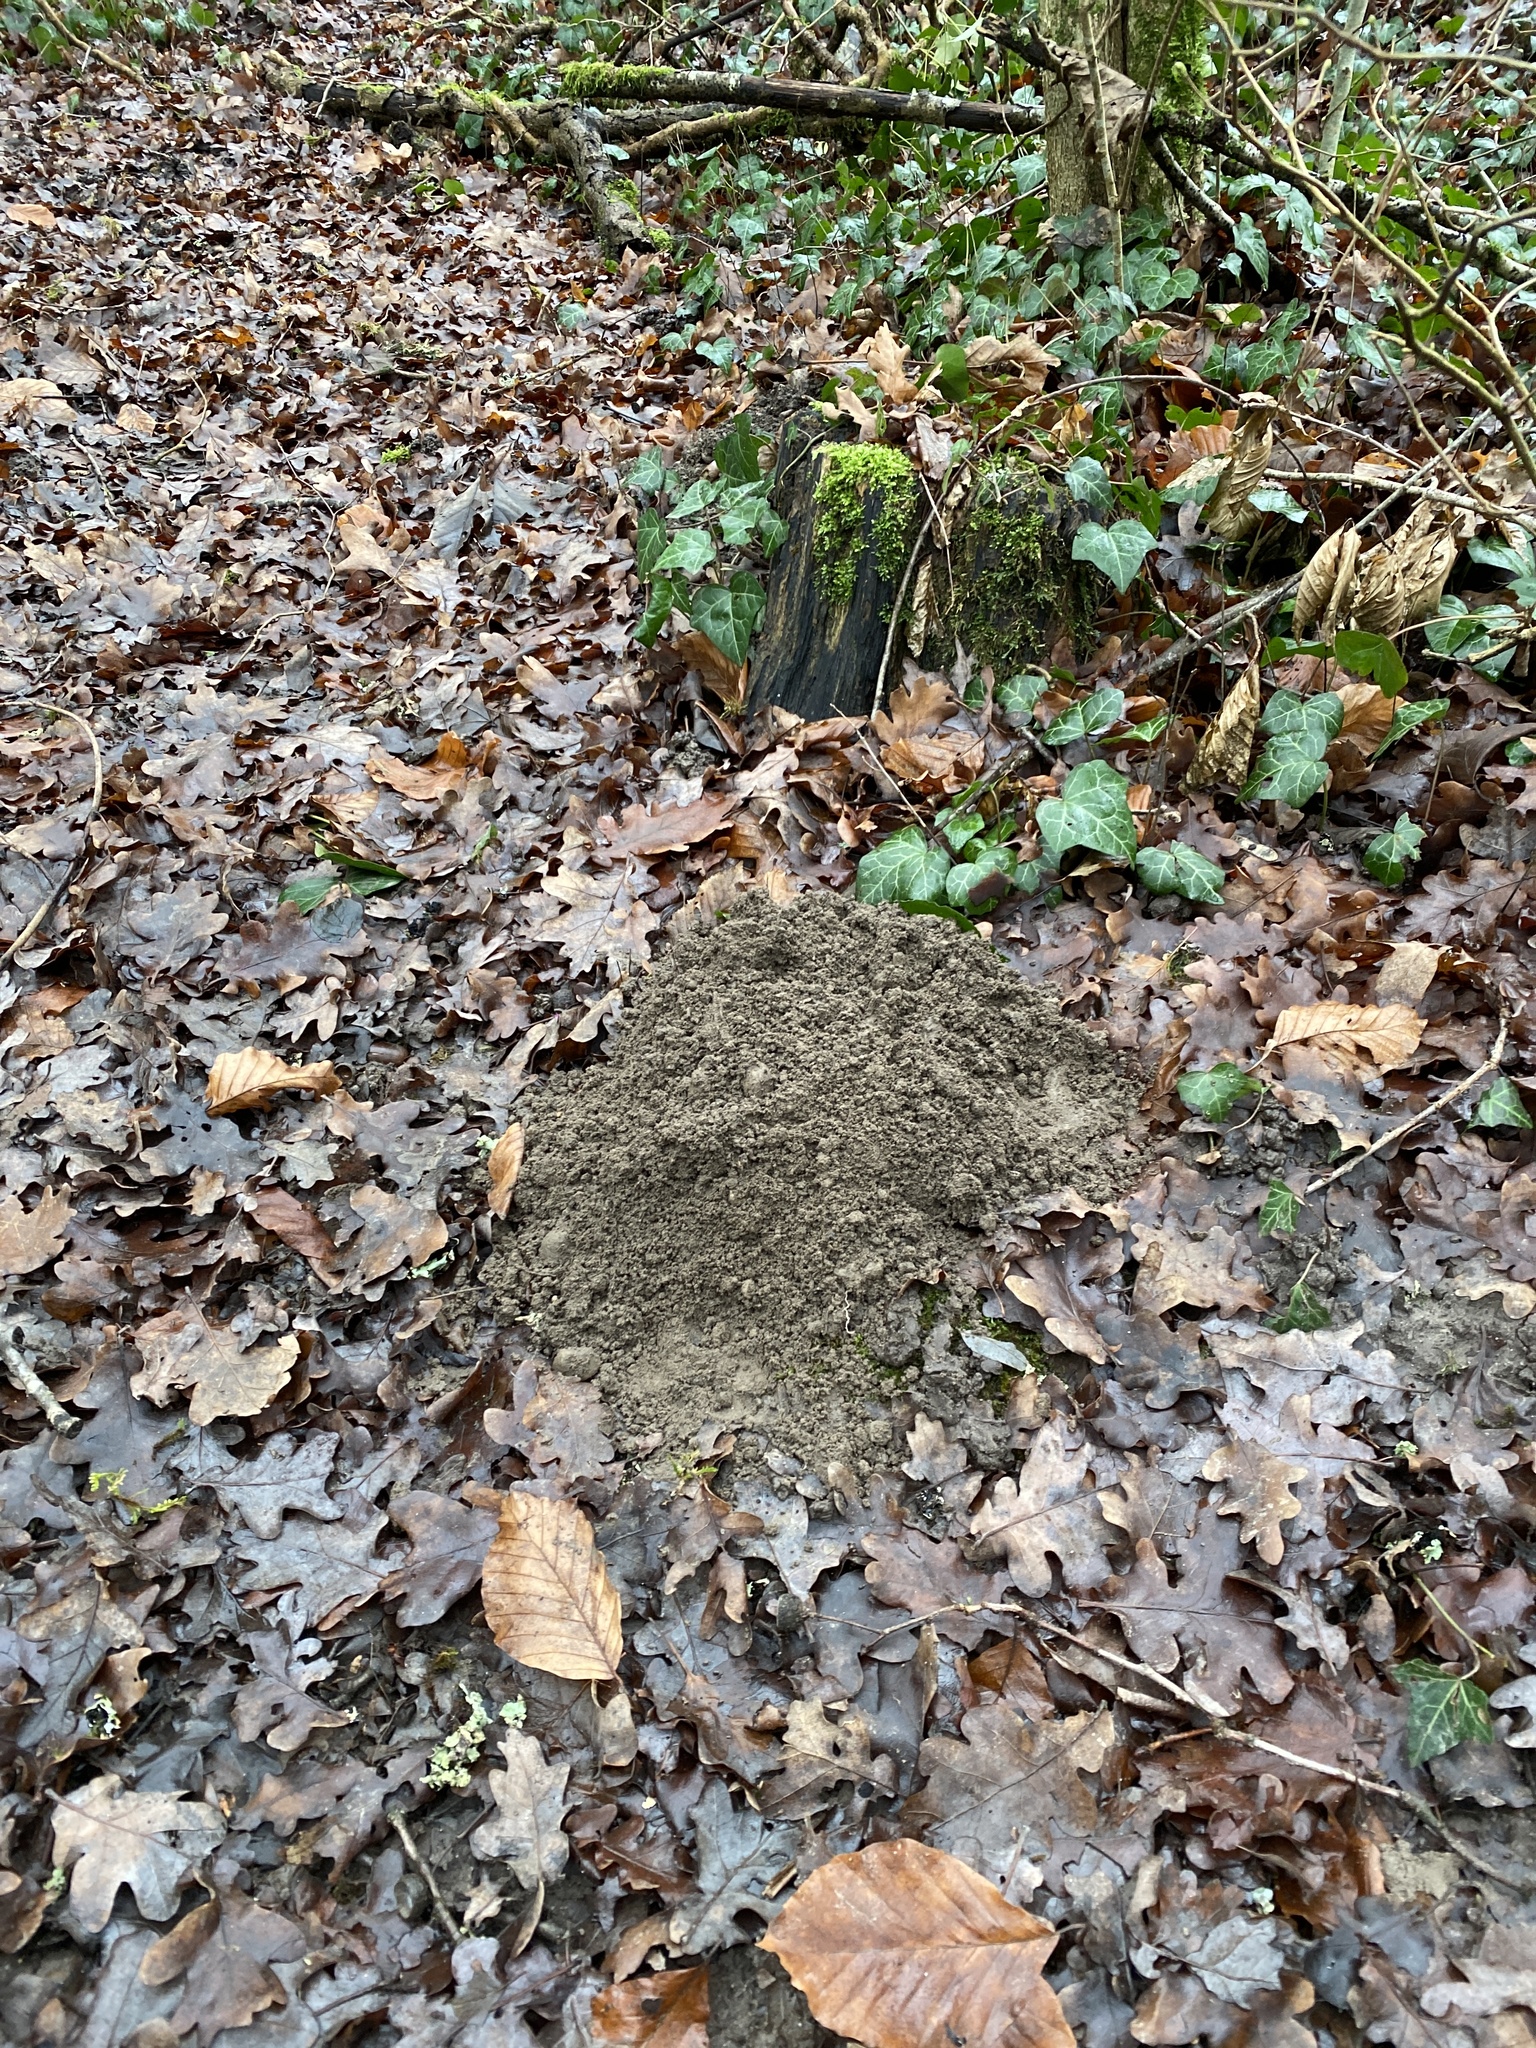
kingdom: Animalia
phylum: Chordata
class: Mammalia
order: Soricomorpha
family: Talpidae
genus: Talpa
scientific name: Talpa europaea
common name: European mole
